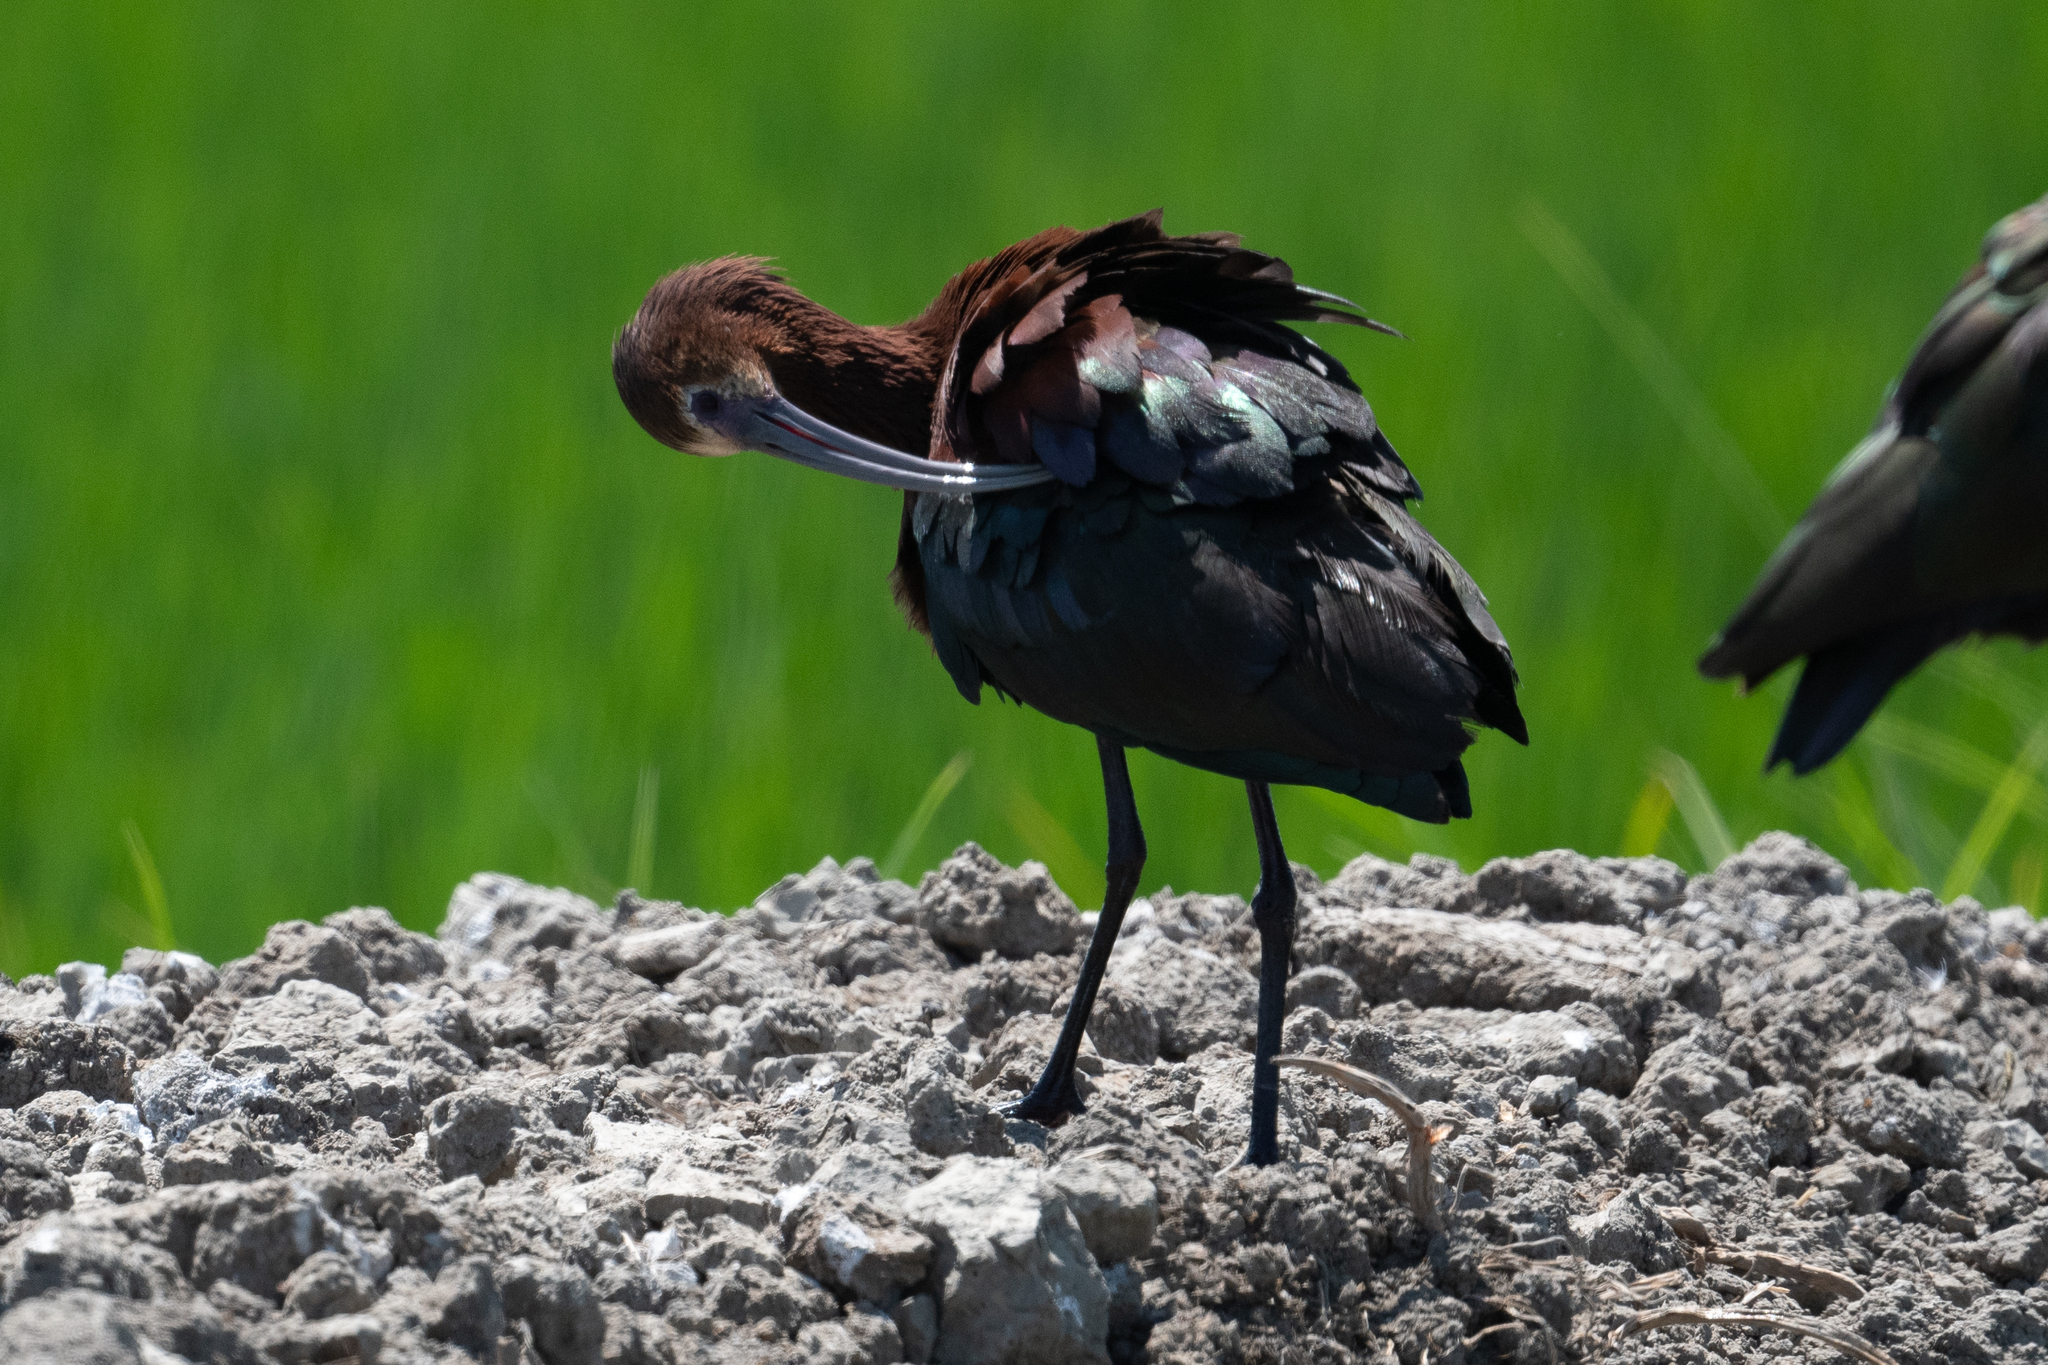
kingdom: Animalia
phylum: Chordata
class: Aves
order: Pelecaniformes
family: Threskiornithidae
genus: Plegadis
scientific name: Plegadis chihi
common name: White-faced ibis
